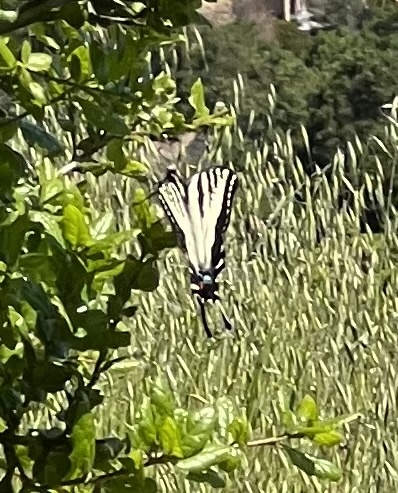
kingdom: Animalia
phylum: Arthropoda
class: Insecta
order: Lepidoptera
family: Papilionidae
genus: Papilio
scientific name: Papilio eurymedon
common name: Pale tiger swallowtail
